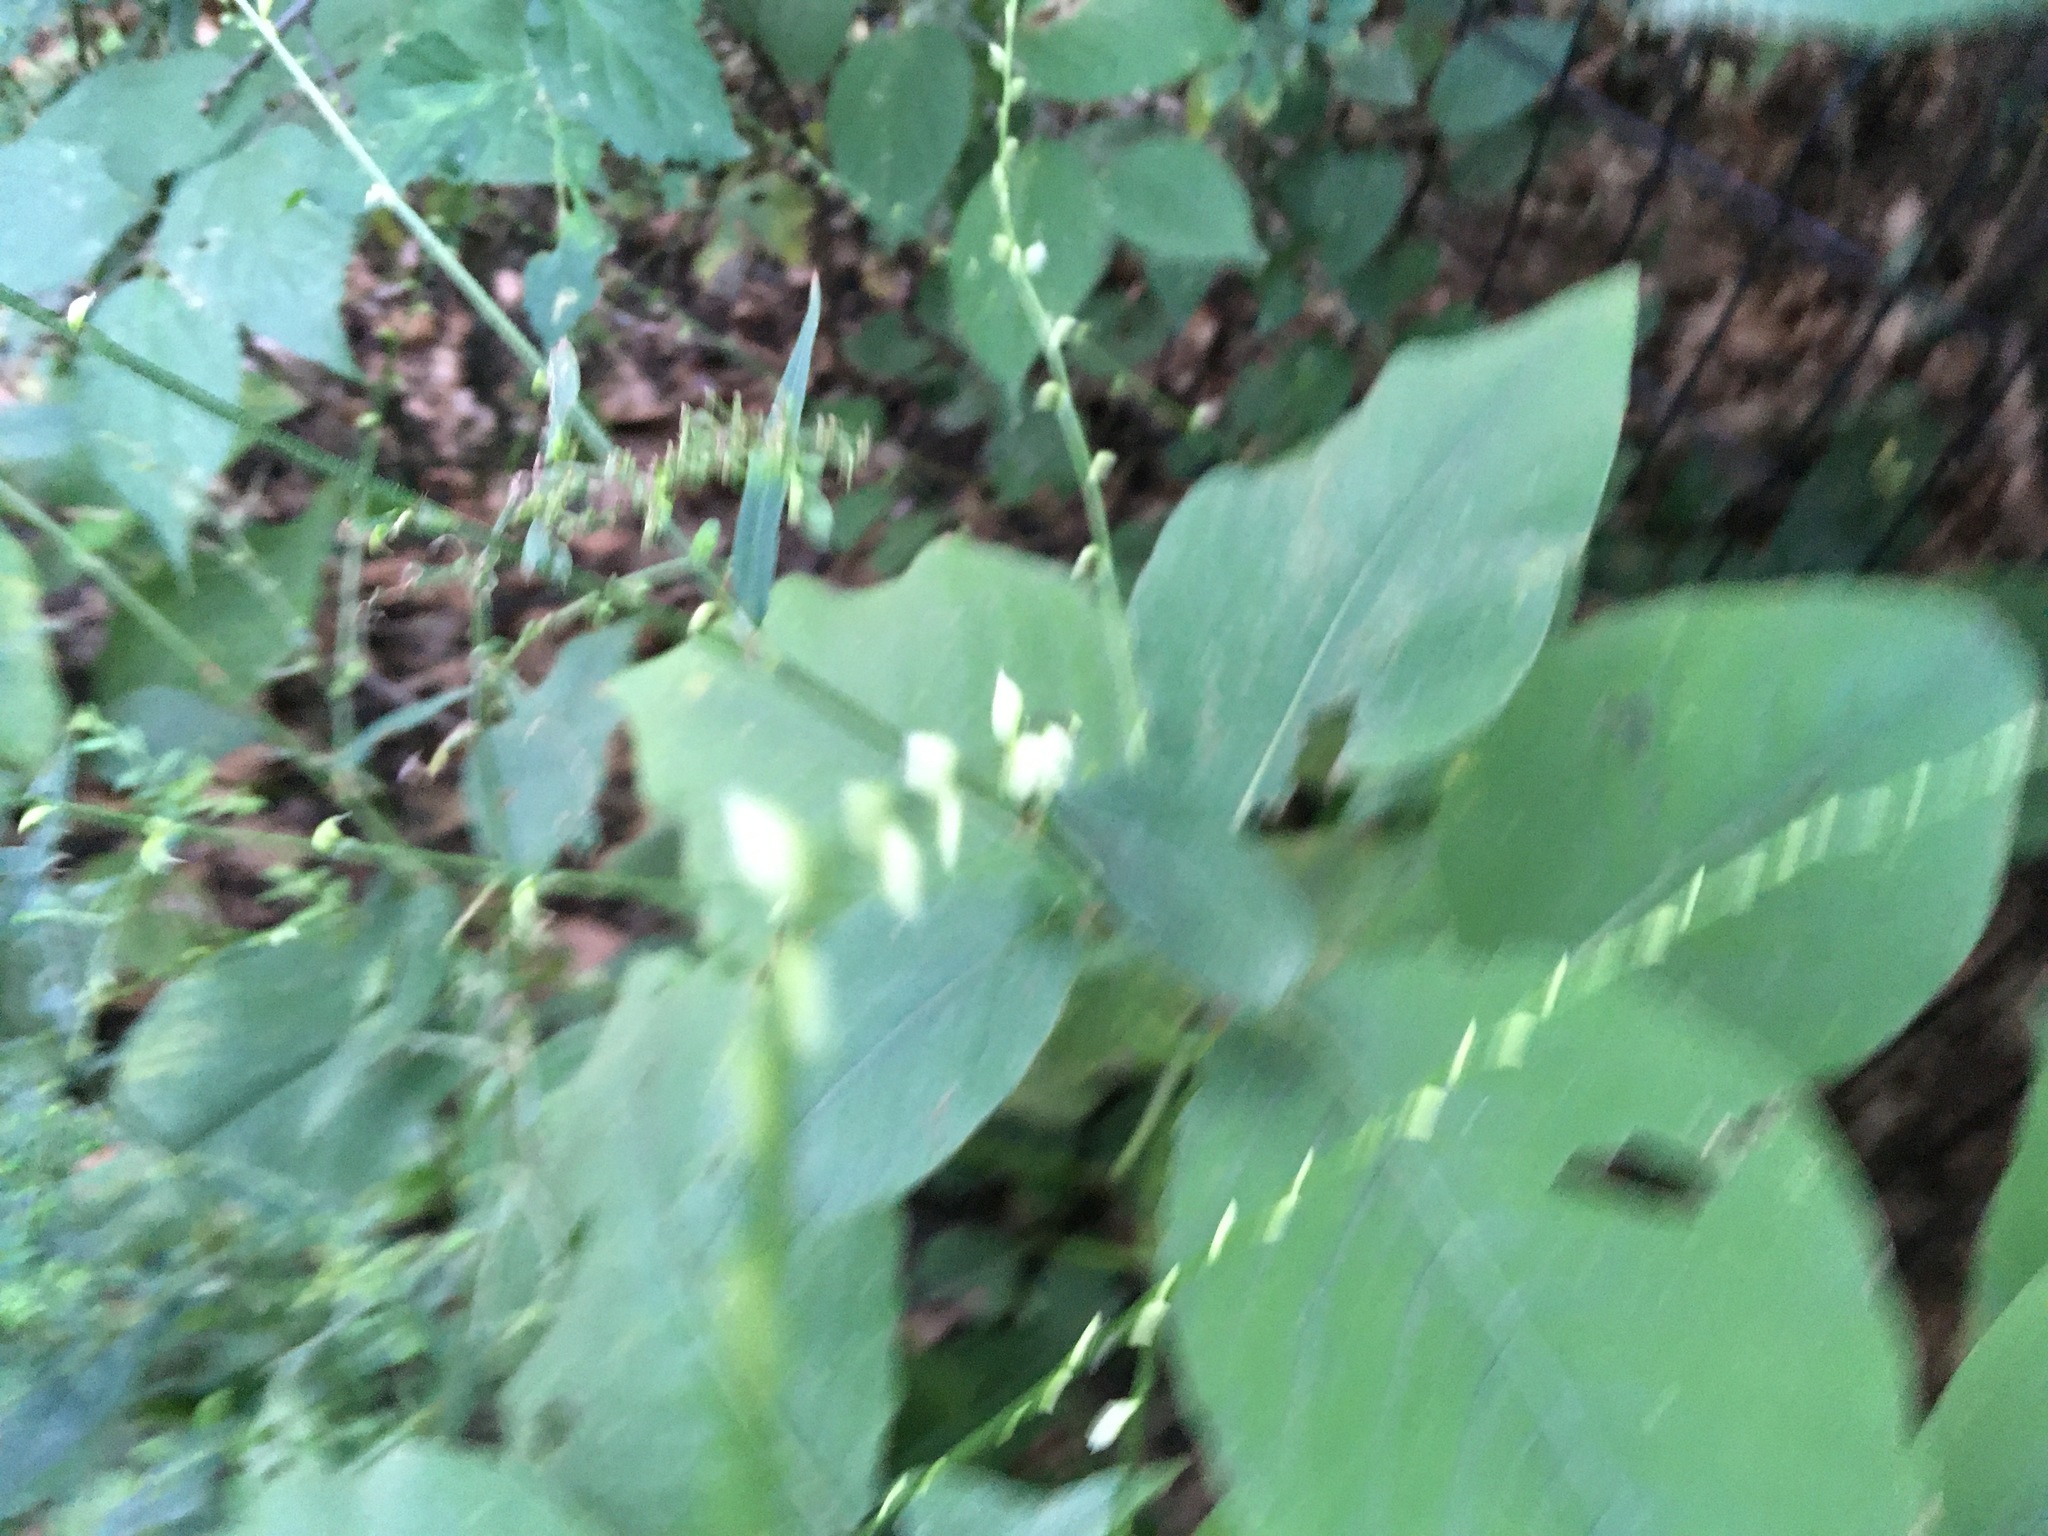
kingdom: Plantae
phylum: Tracheophyta
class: Magnoliopsida
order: Caryophyllales
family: Polygonaceae
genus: Persicaria
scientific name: Persicaria virginiana
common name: Jumpseed
